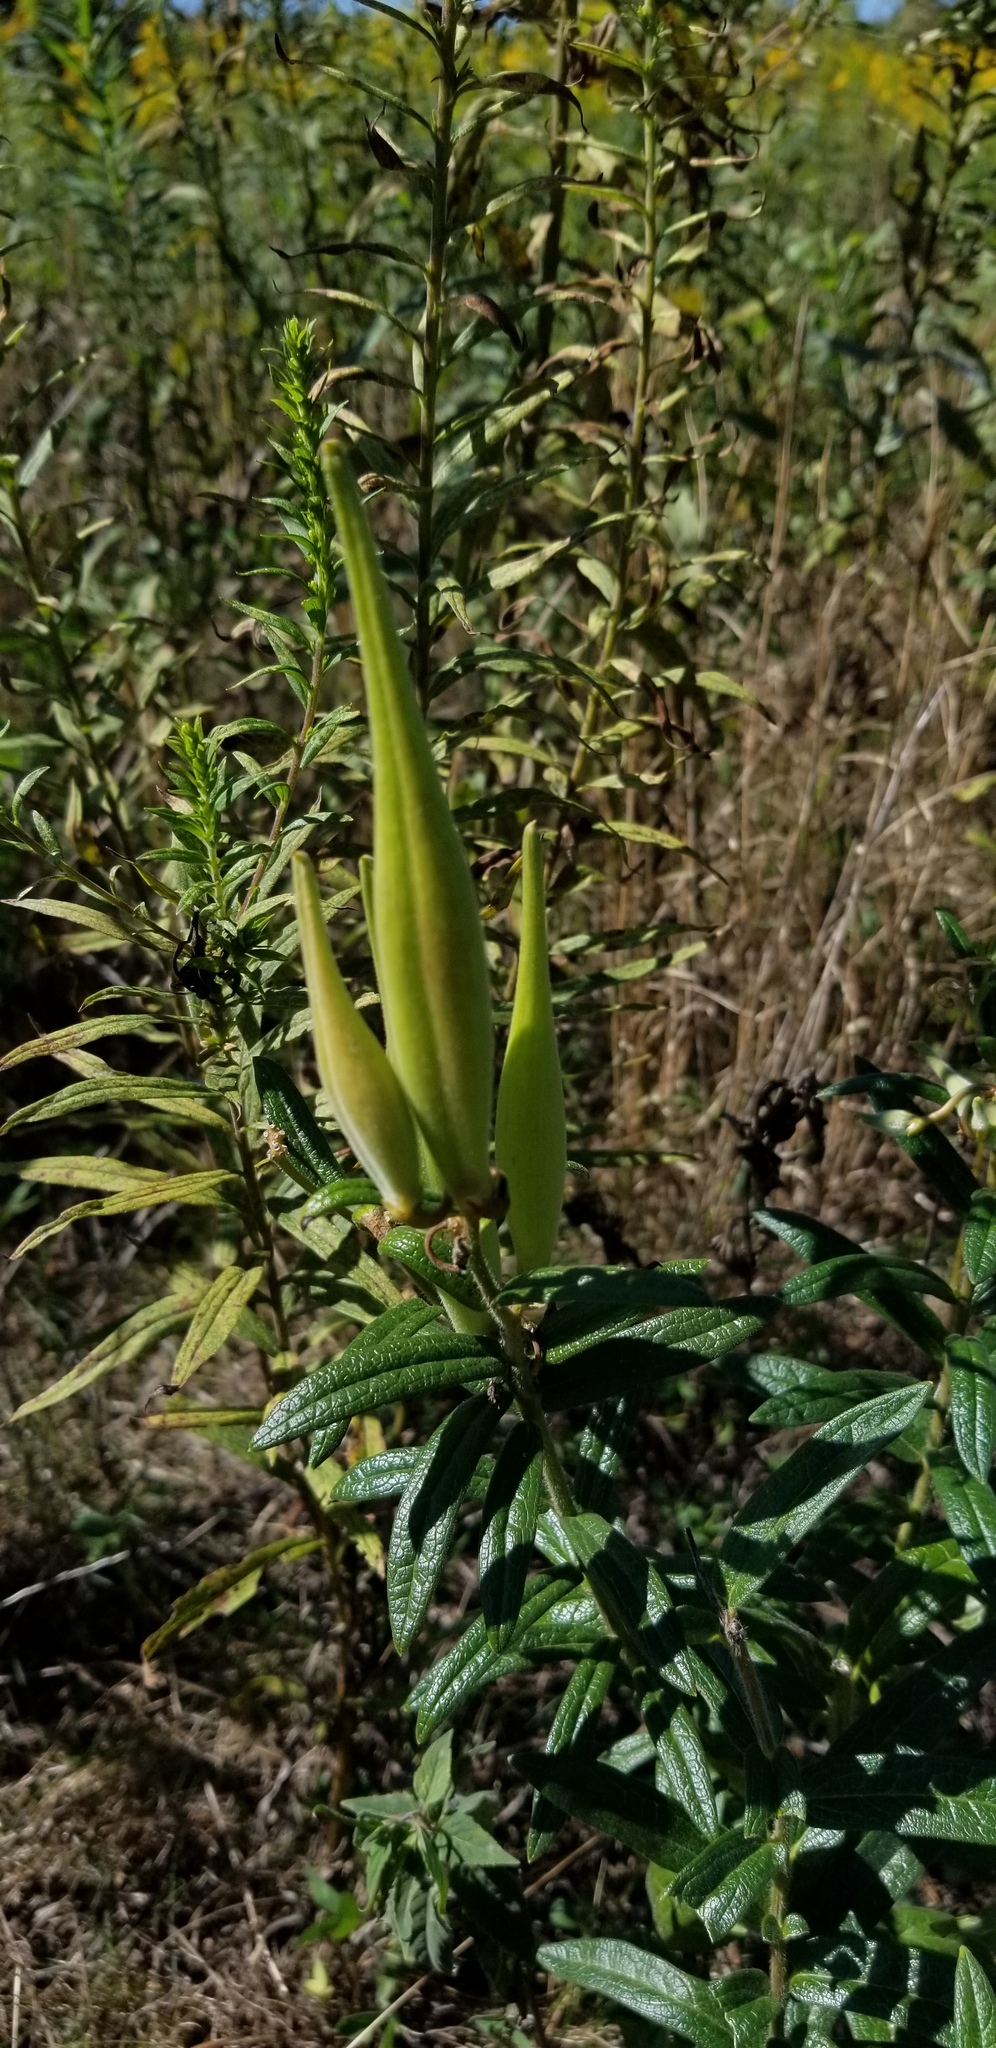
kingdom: Plantae
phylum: Tracheophyta
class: Magnoliopsida
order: Gentianales
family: Apocynaceae
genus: Asclepias
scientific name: Asclepias tuberosa
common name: Butterfly milkweed
